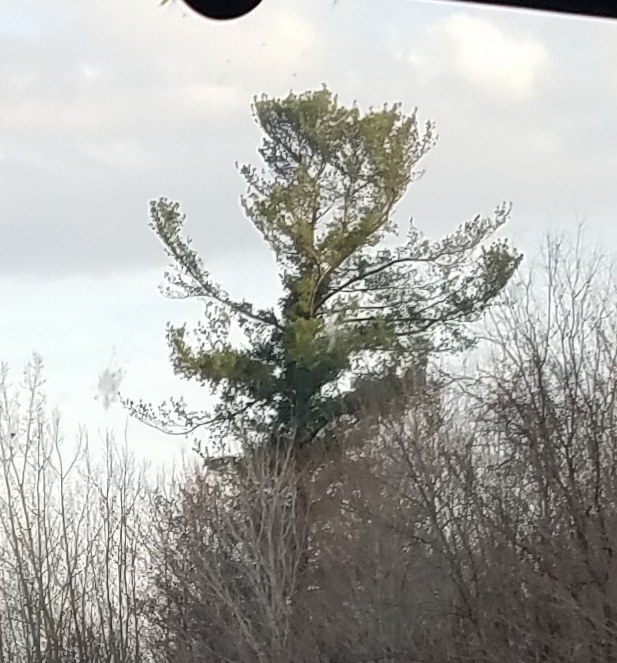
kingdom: Plantae
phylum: Tracheophyta
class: Pinopsida
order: Pinales
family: Pinaceae
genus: Pinus
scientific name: Pinus strobus
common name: Weymouth pine
